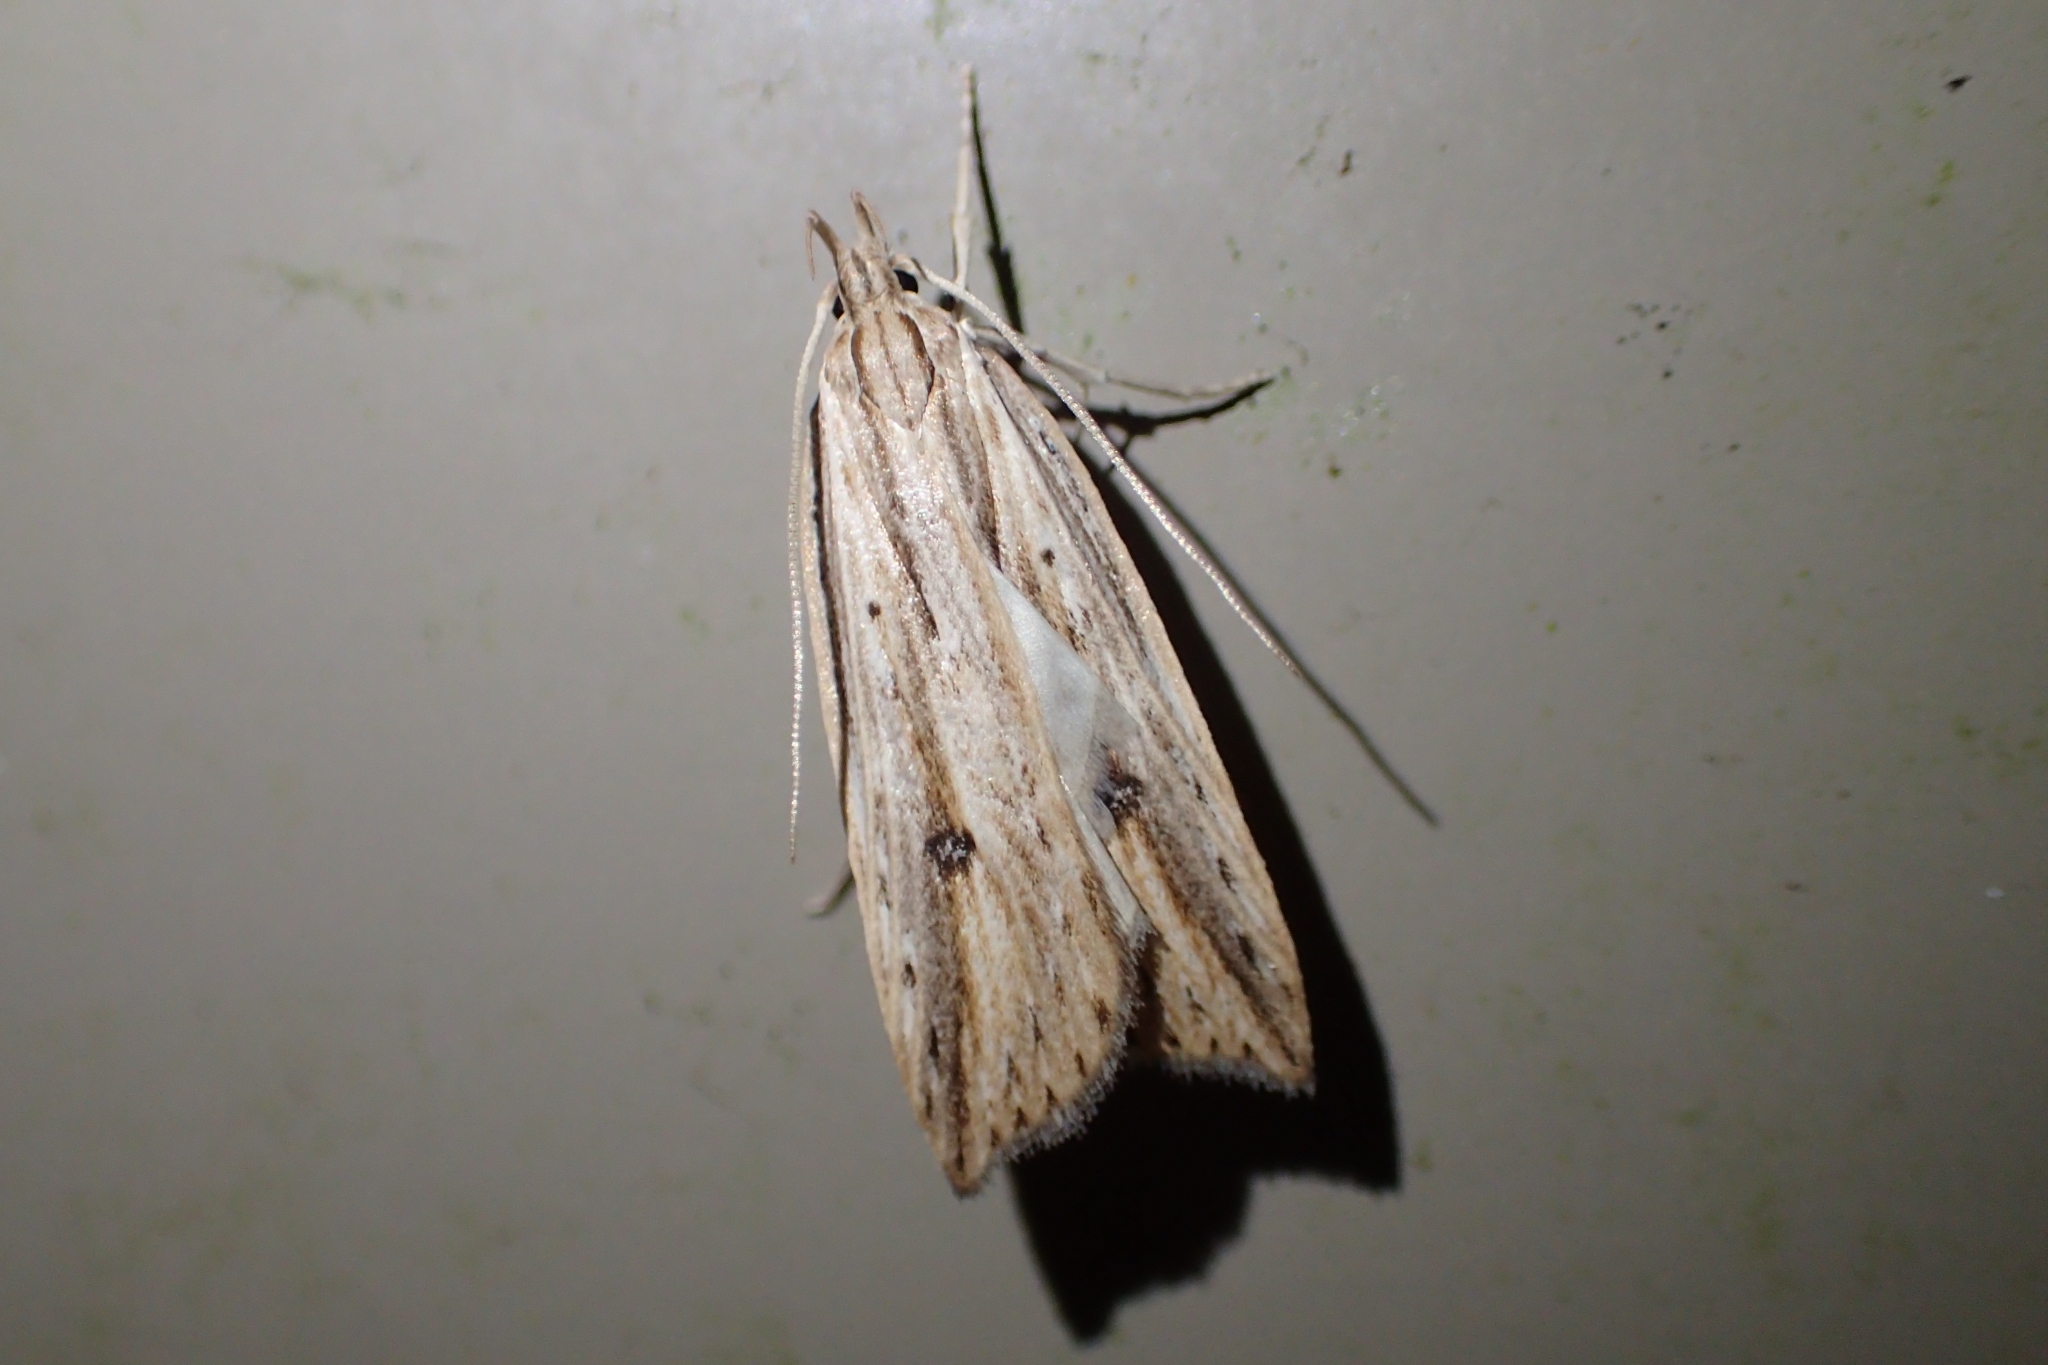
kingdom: Animalia
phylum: Arthropoda
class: Insecta
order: Lepidoptera
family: Xyloryctidae
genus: Donacostola
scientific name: Donacostola notabilis
